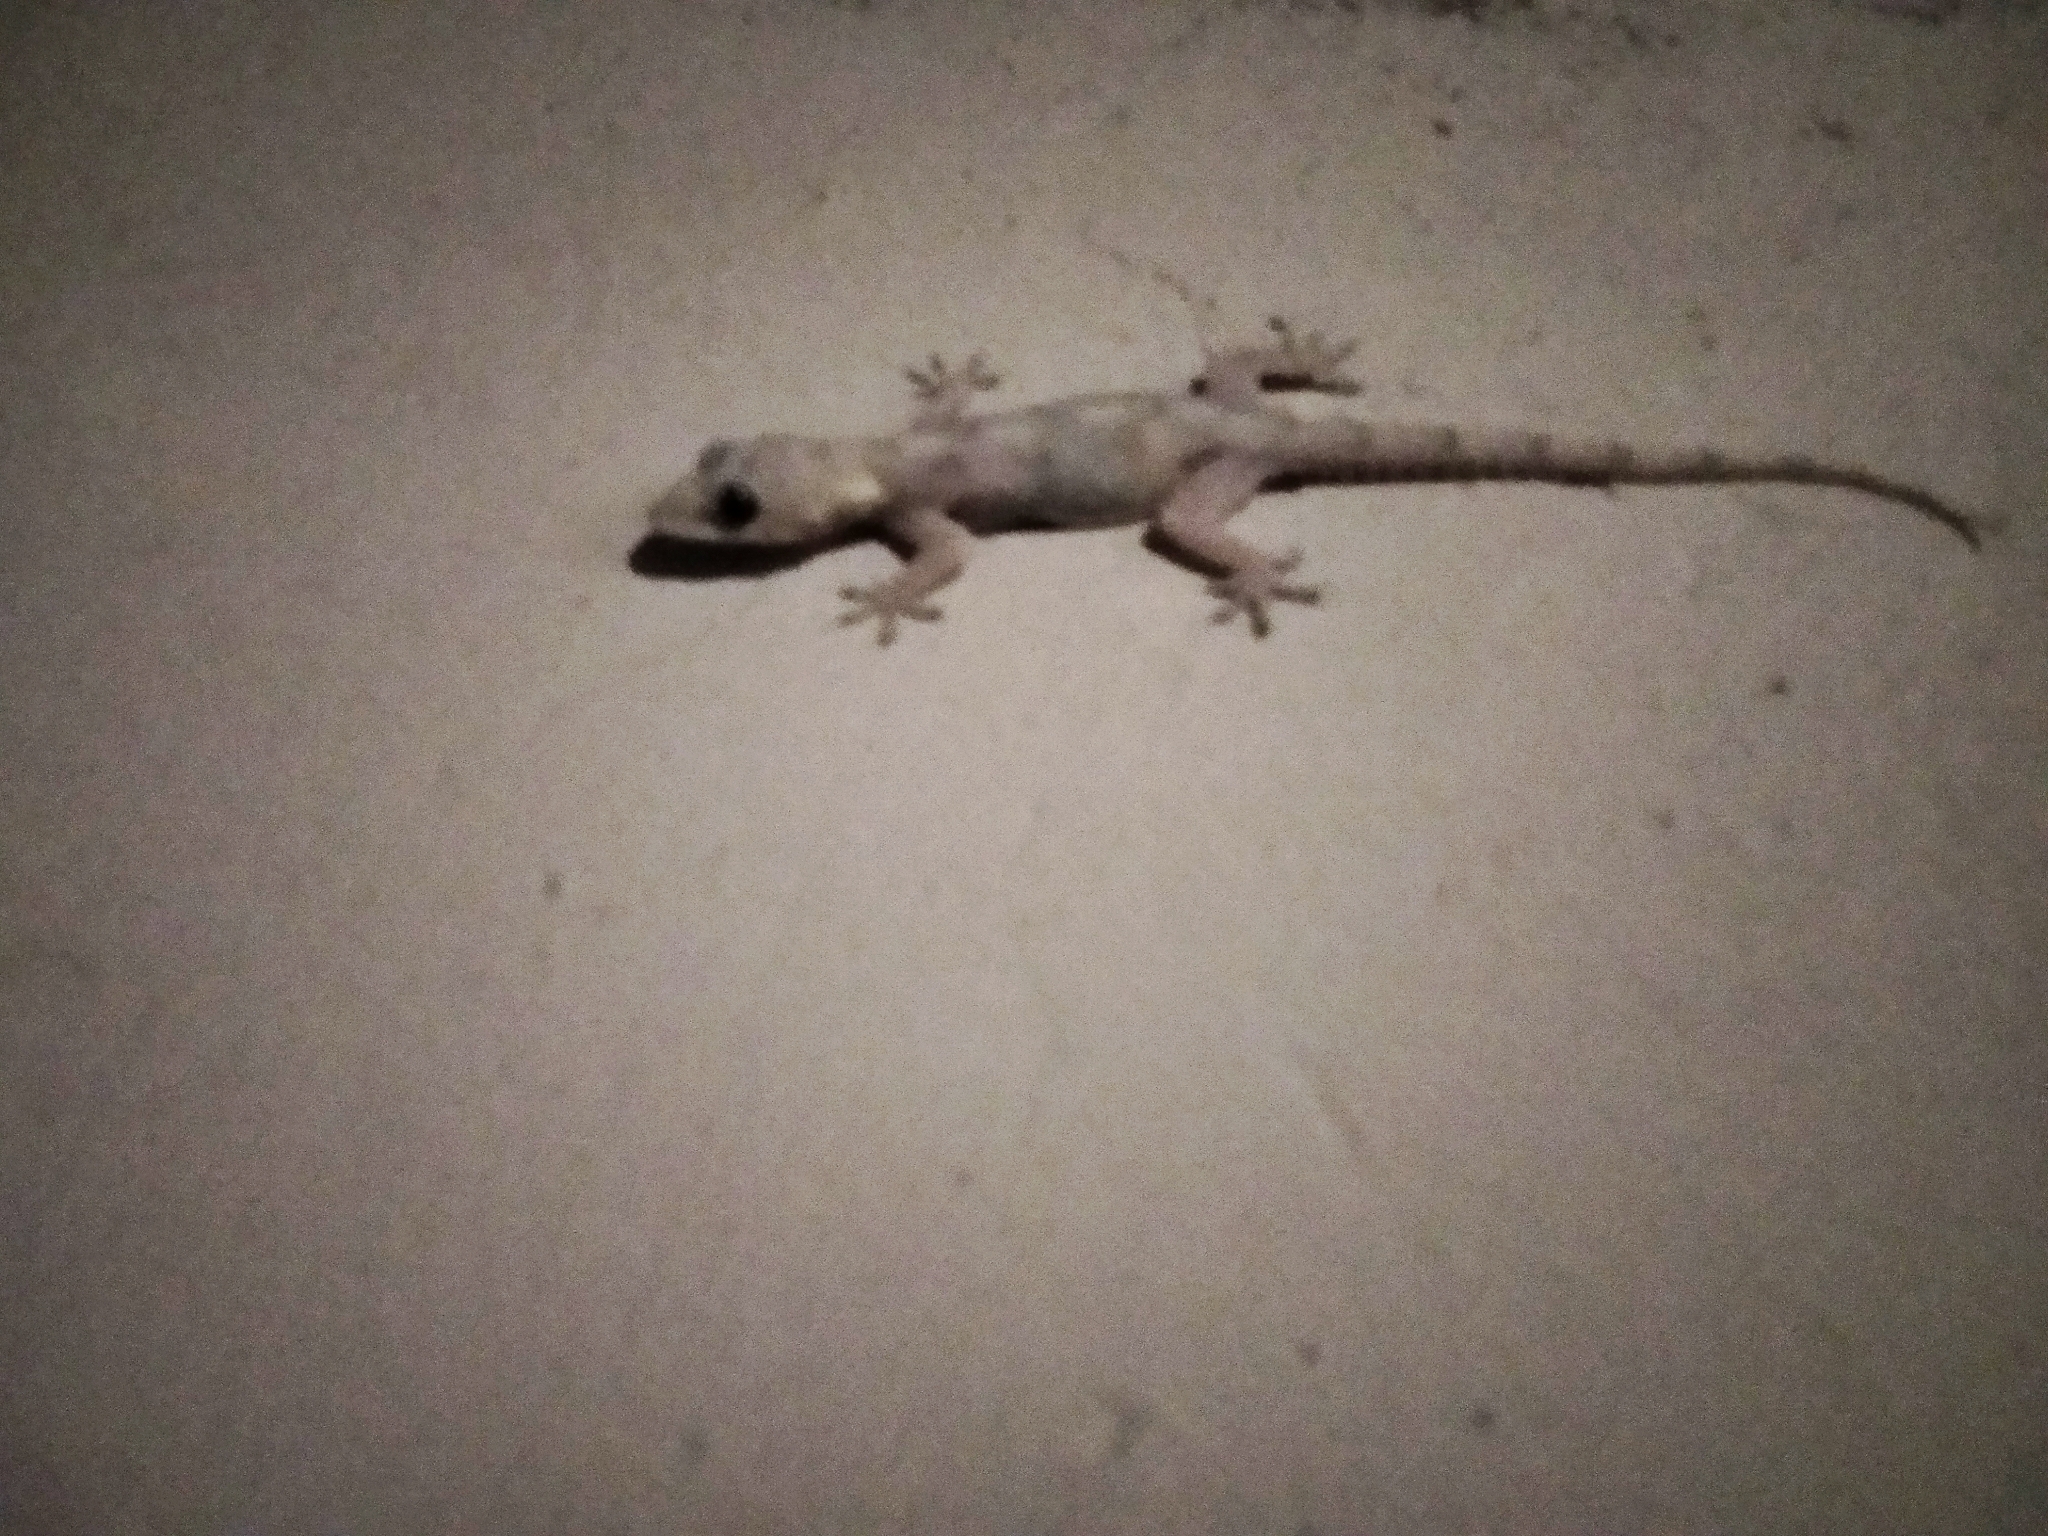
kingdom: Animalia
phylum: Chordata
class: Squamata
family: Gekkonidae
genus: Hemidactylus
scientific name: Hemidactylus mabouia
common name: House gecko
